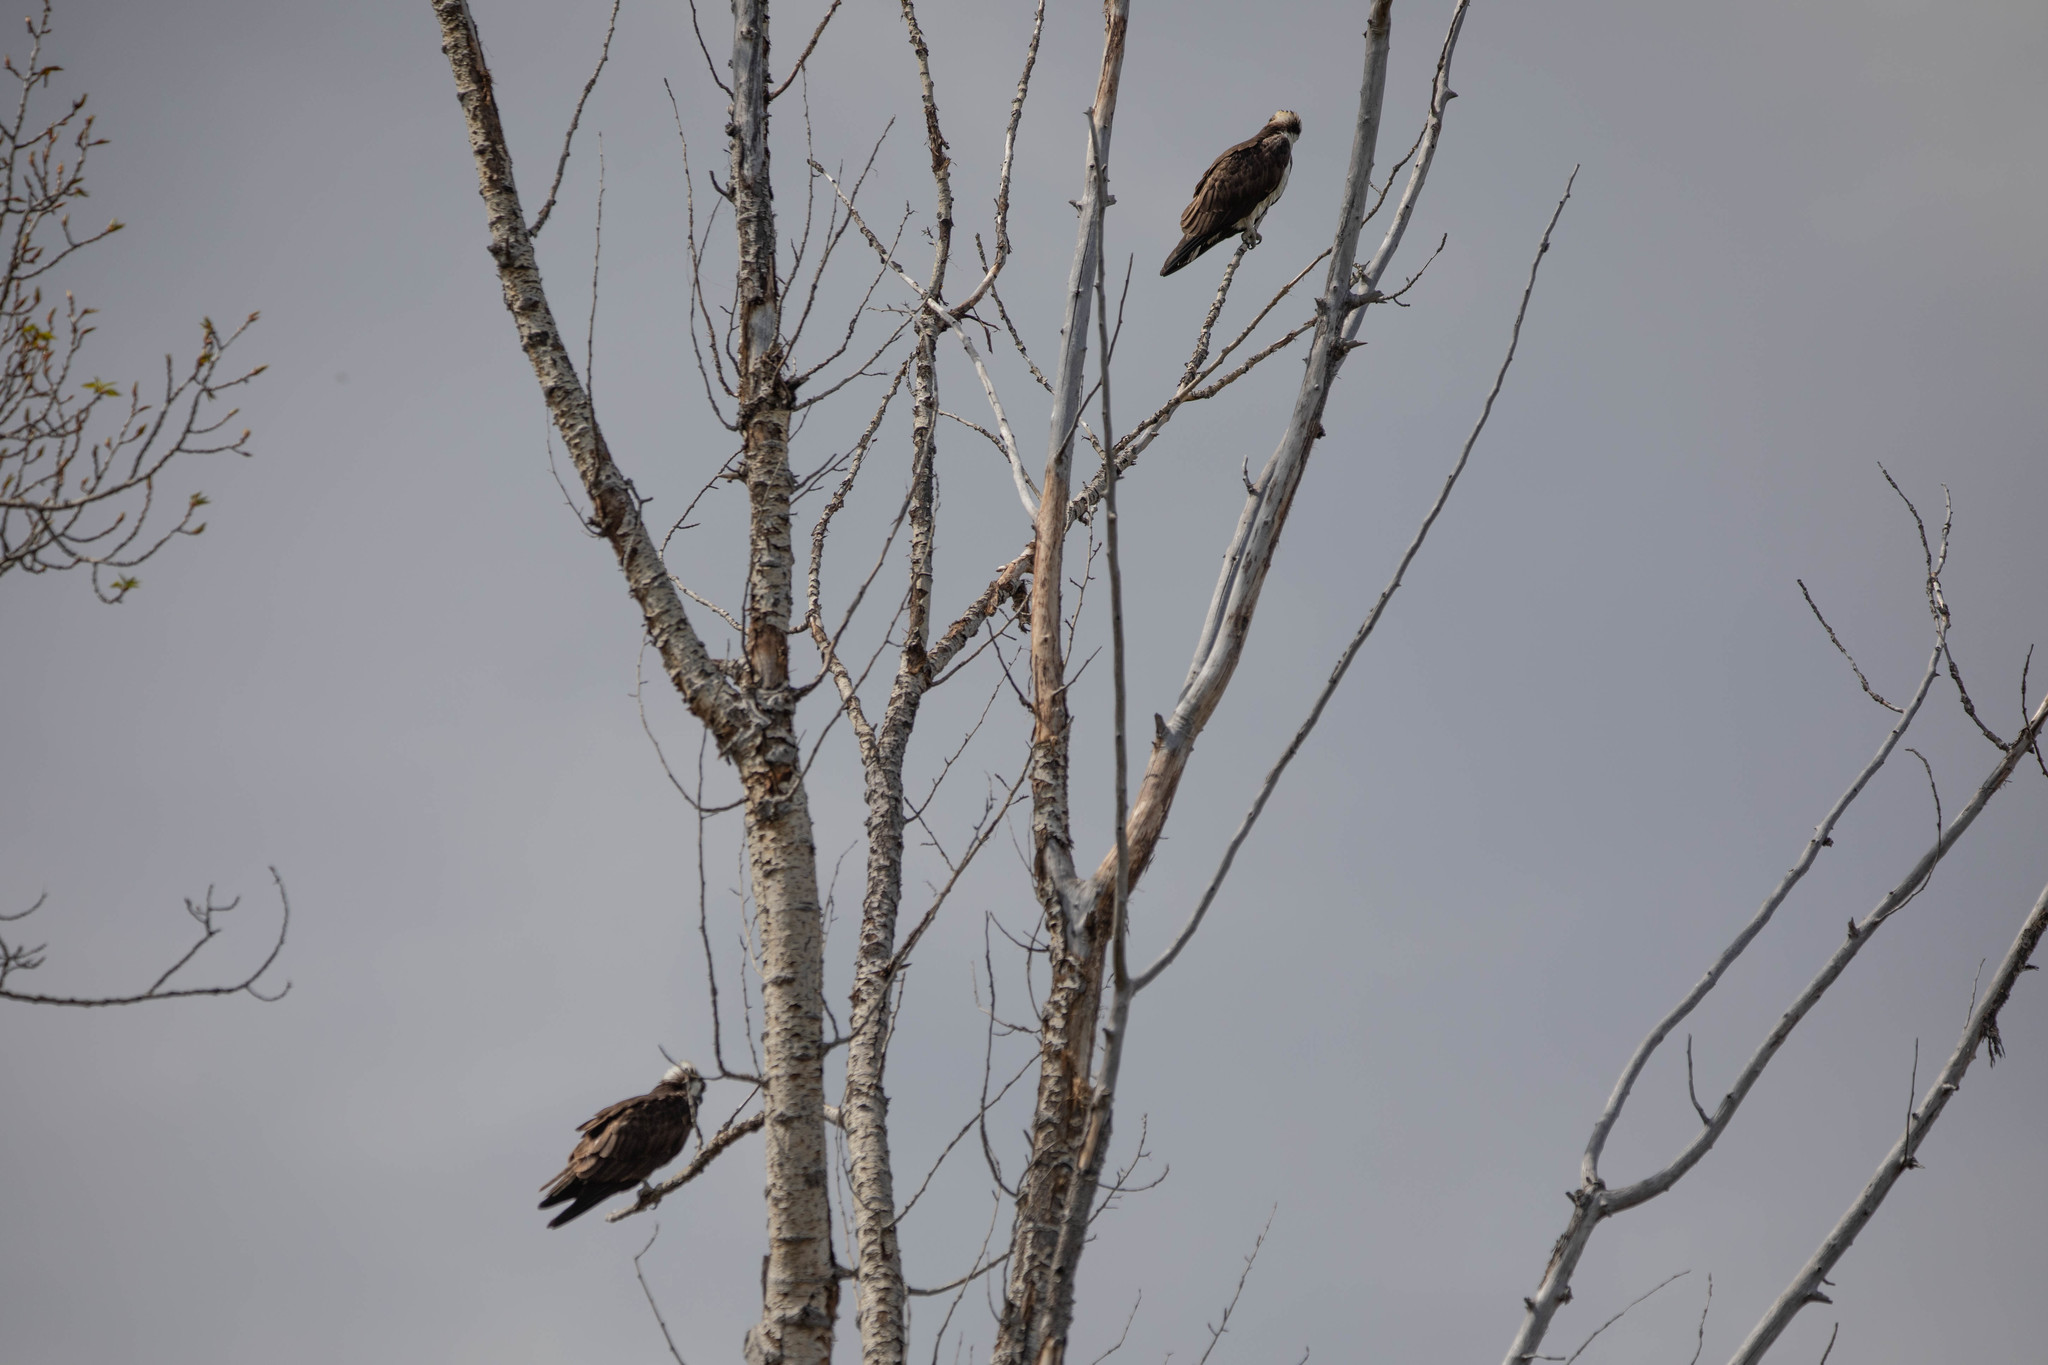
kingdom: Animalia
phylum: Chordata
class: Aves
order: Accipitriformes
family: Pandionidae
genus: Pandion
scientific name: Pandion haliaetus
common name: Osprey
